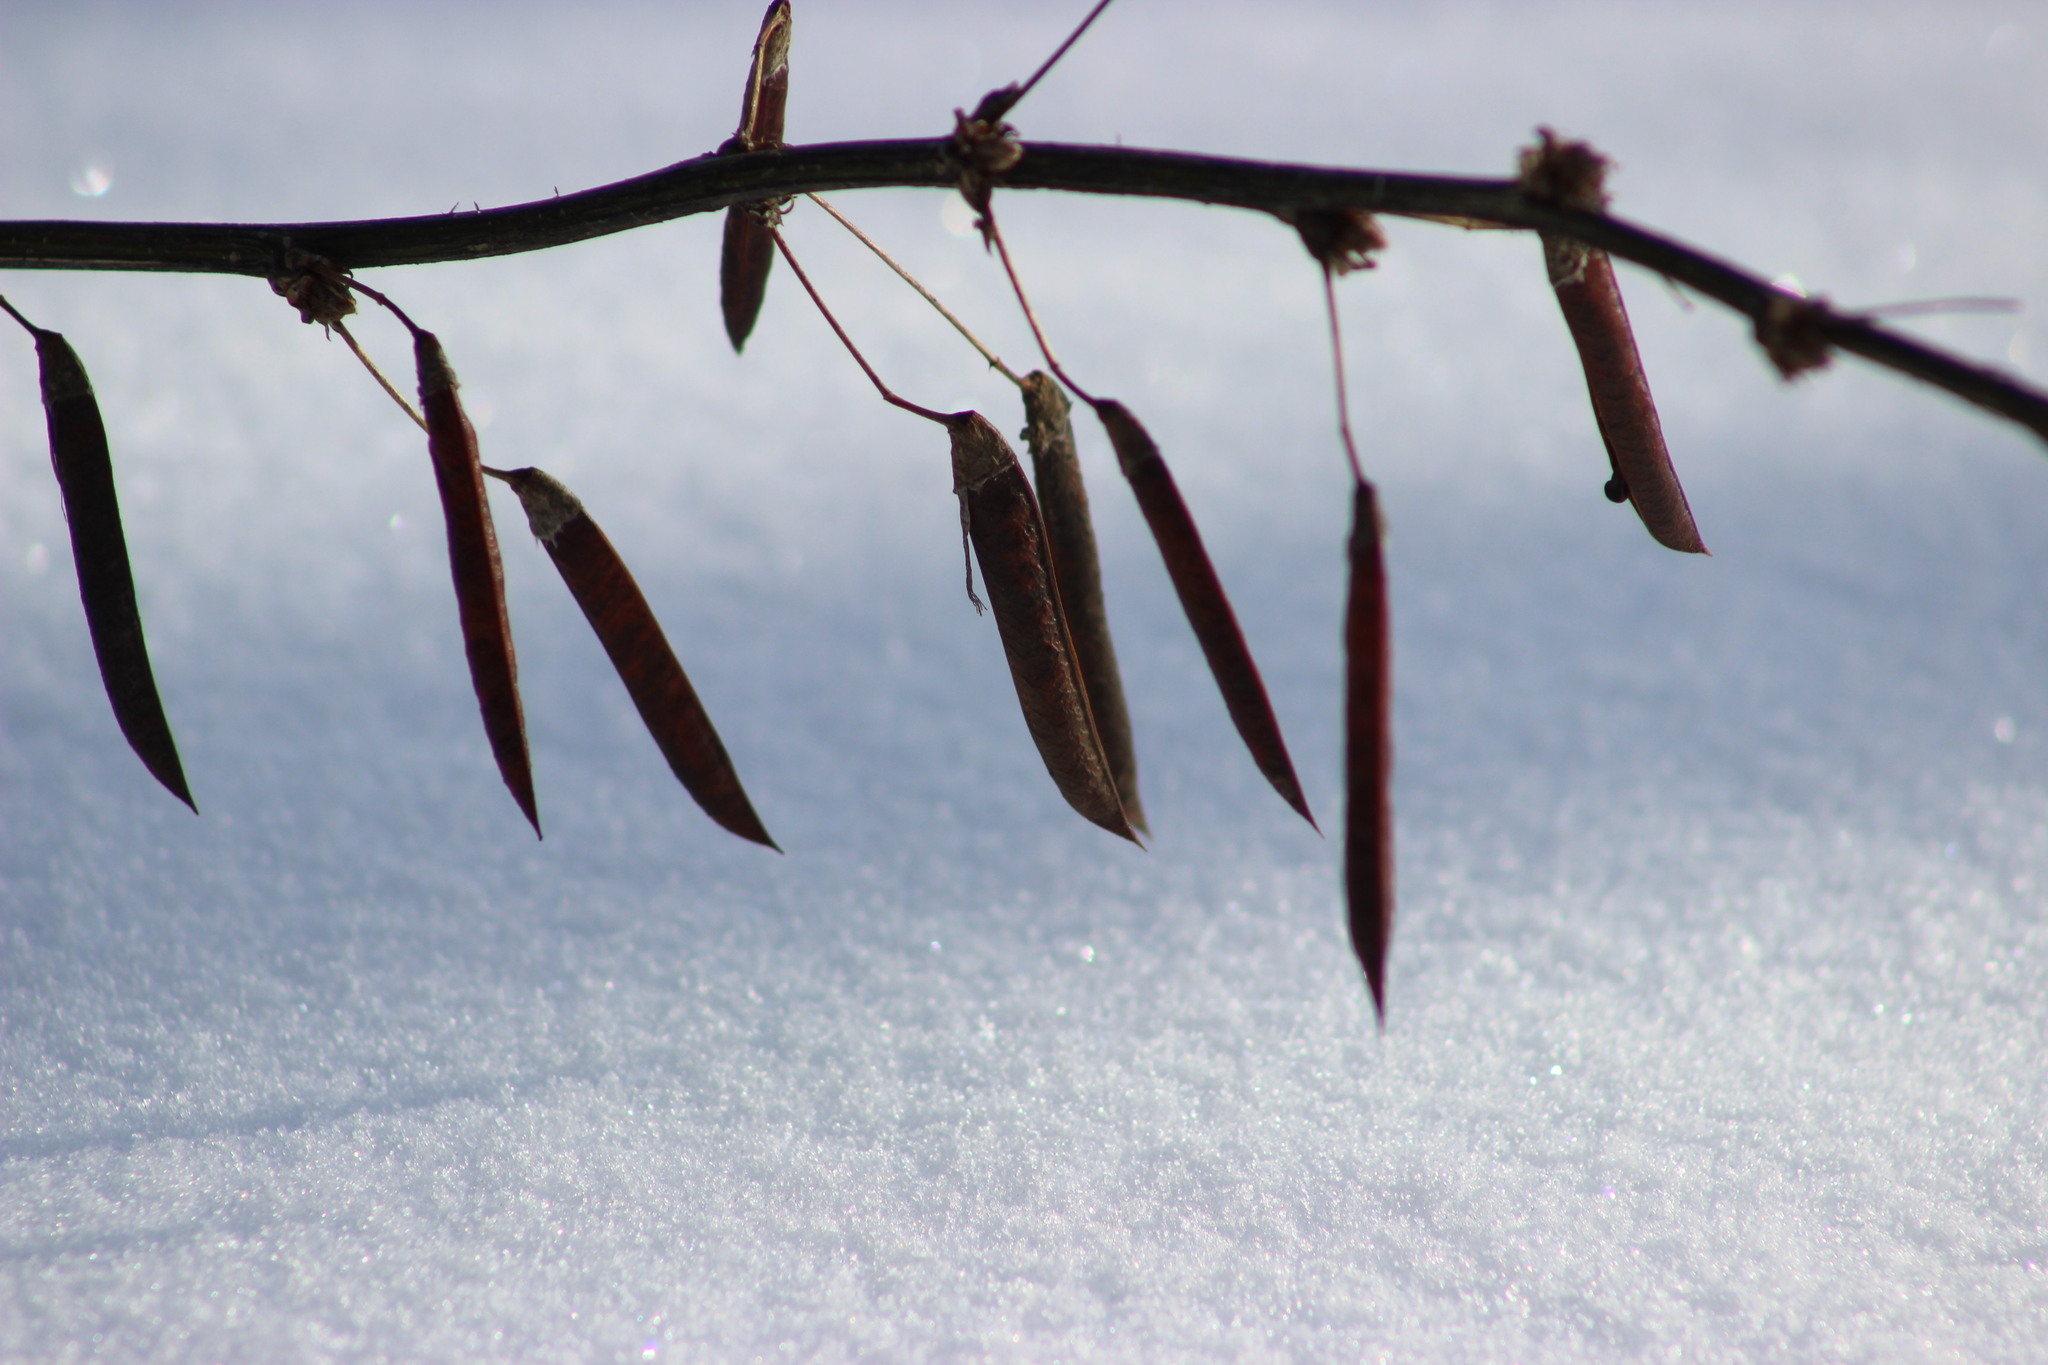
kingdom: Plantae
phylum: Tracheophyta
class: Magnoliopsida
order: Fabales
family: Fabaceae
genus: Caragana
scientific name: Caragana arborescens
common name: Siberian peashrub
